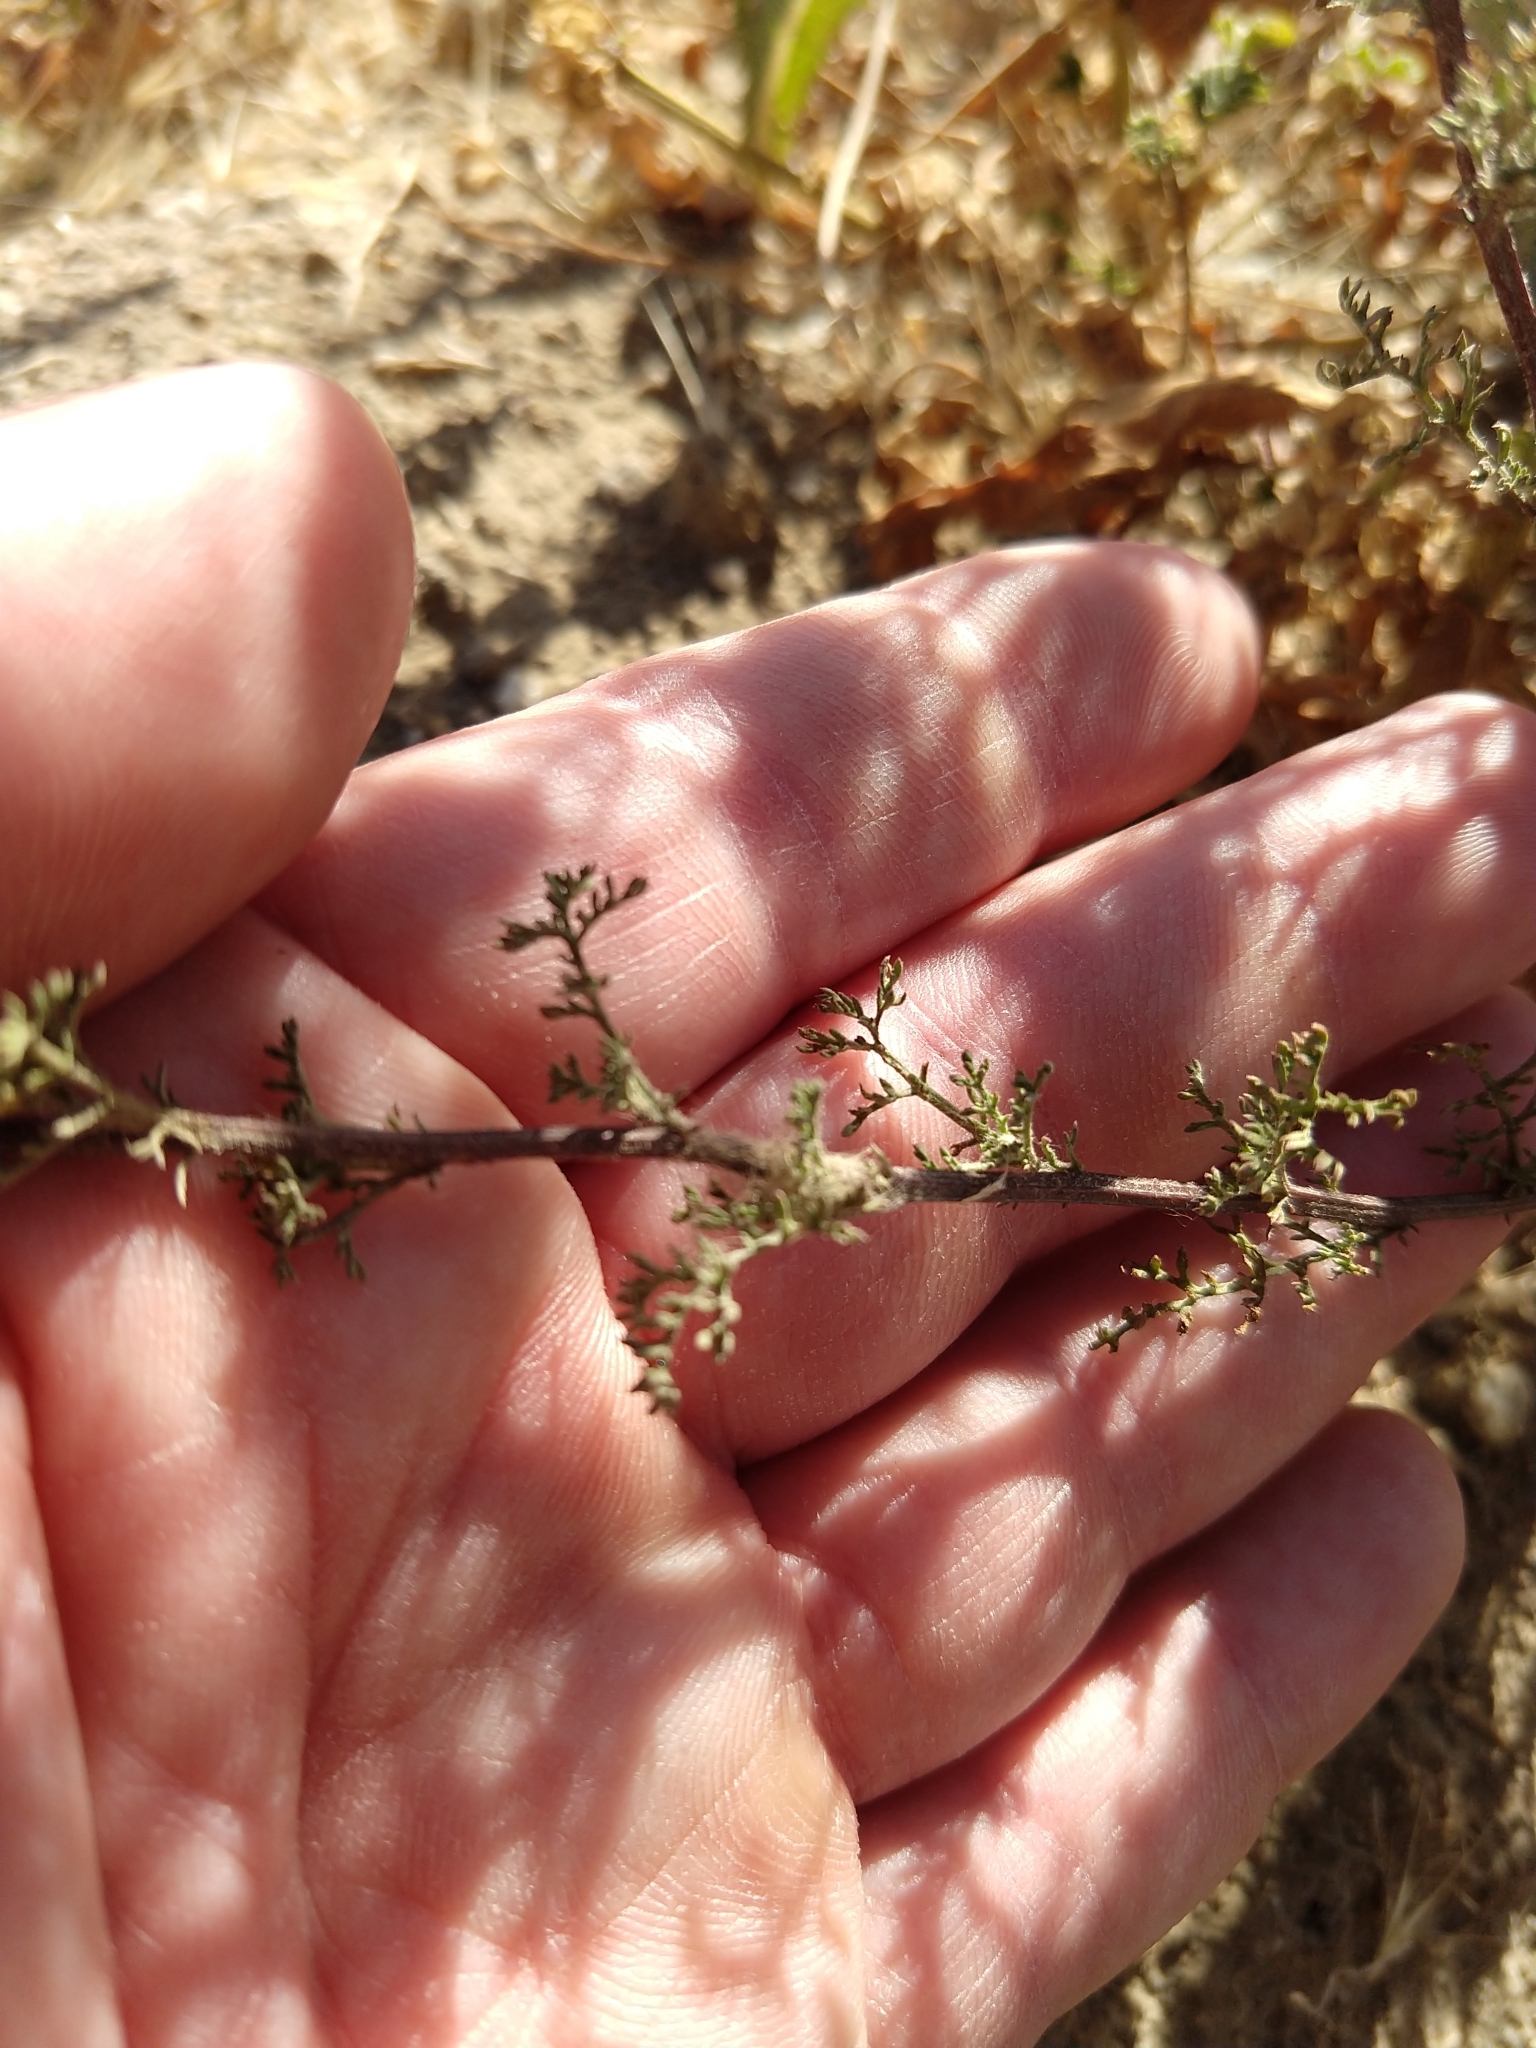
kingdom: Plantae
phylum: Tracheophyta
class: Magnoliopsida
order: Asterales
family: Asteraceae
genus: Oncosiphon
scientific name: Oncosiphon pilulifer
